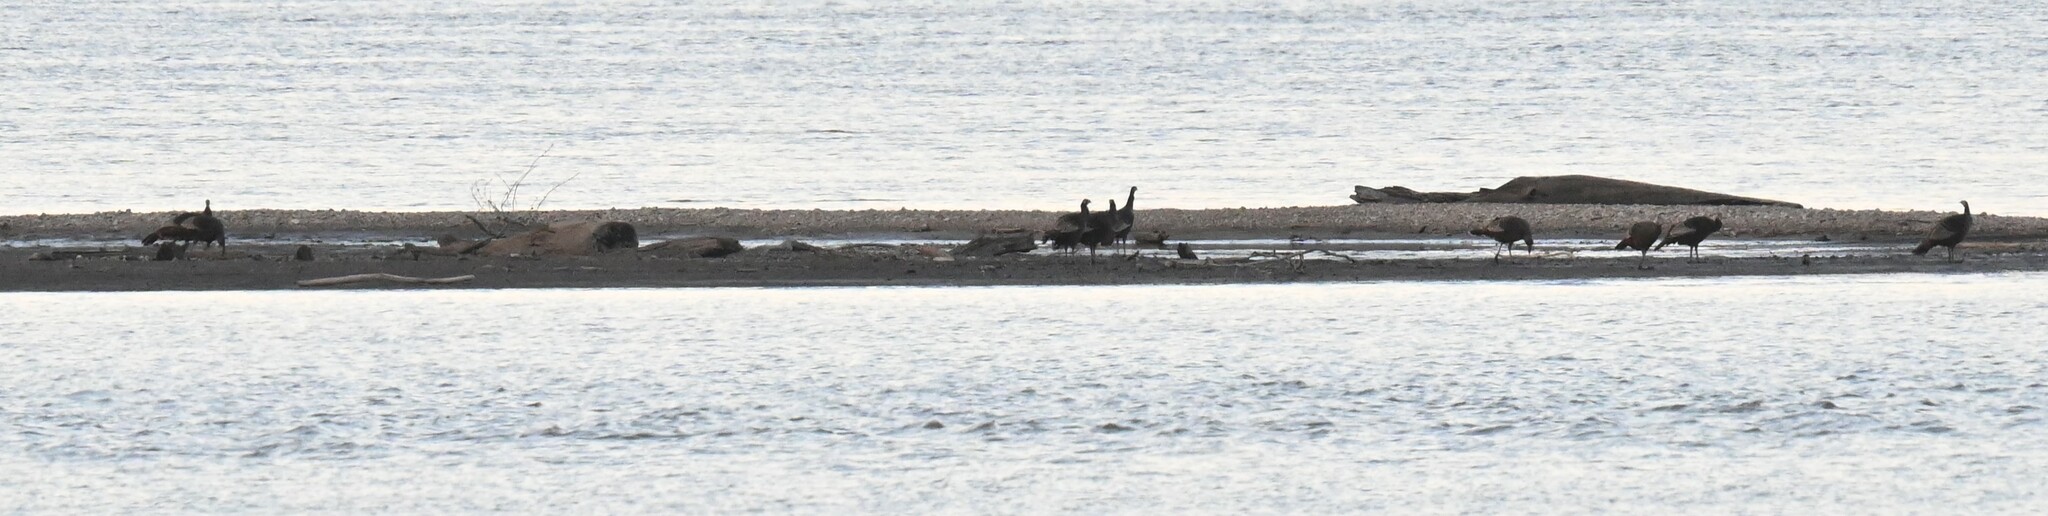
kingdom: Animalia
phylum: Chordata
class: Aves
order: Galliformes
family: Phasianidae
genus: Meleagris
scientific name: Meleagris gallopavo
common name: Wild turkey
